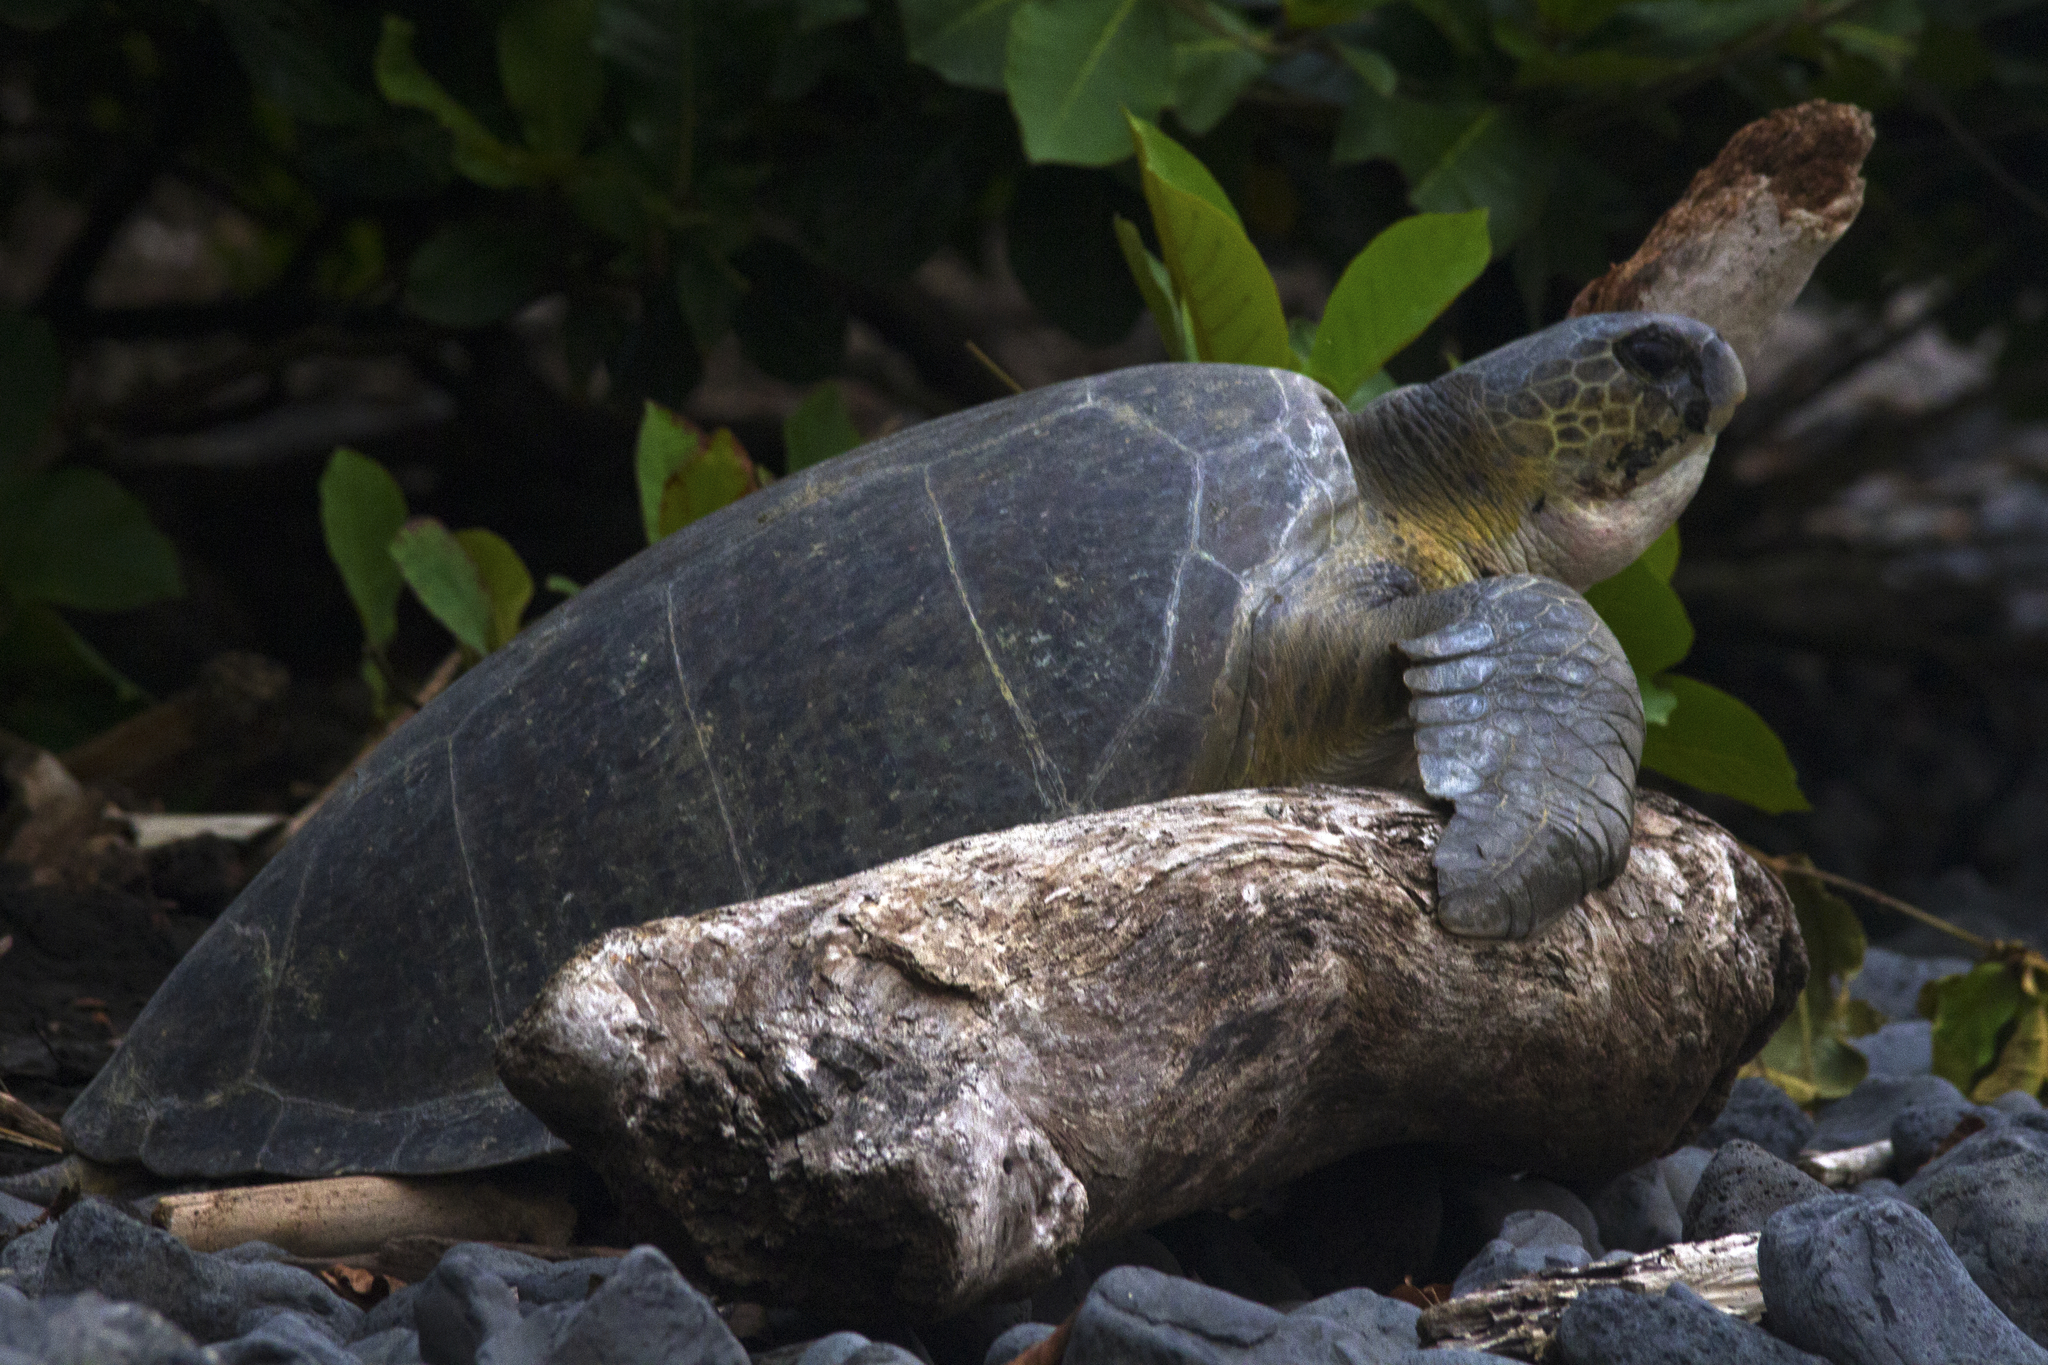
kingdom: Animalia
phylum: Chordata
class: Testudines
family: Cheloniidae
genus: Chelonia
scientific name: Chelonia mydas
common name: Green turtle
